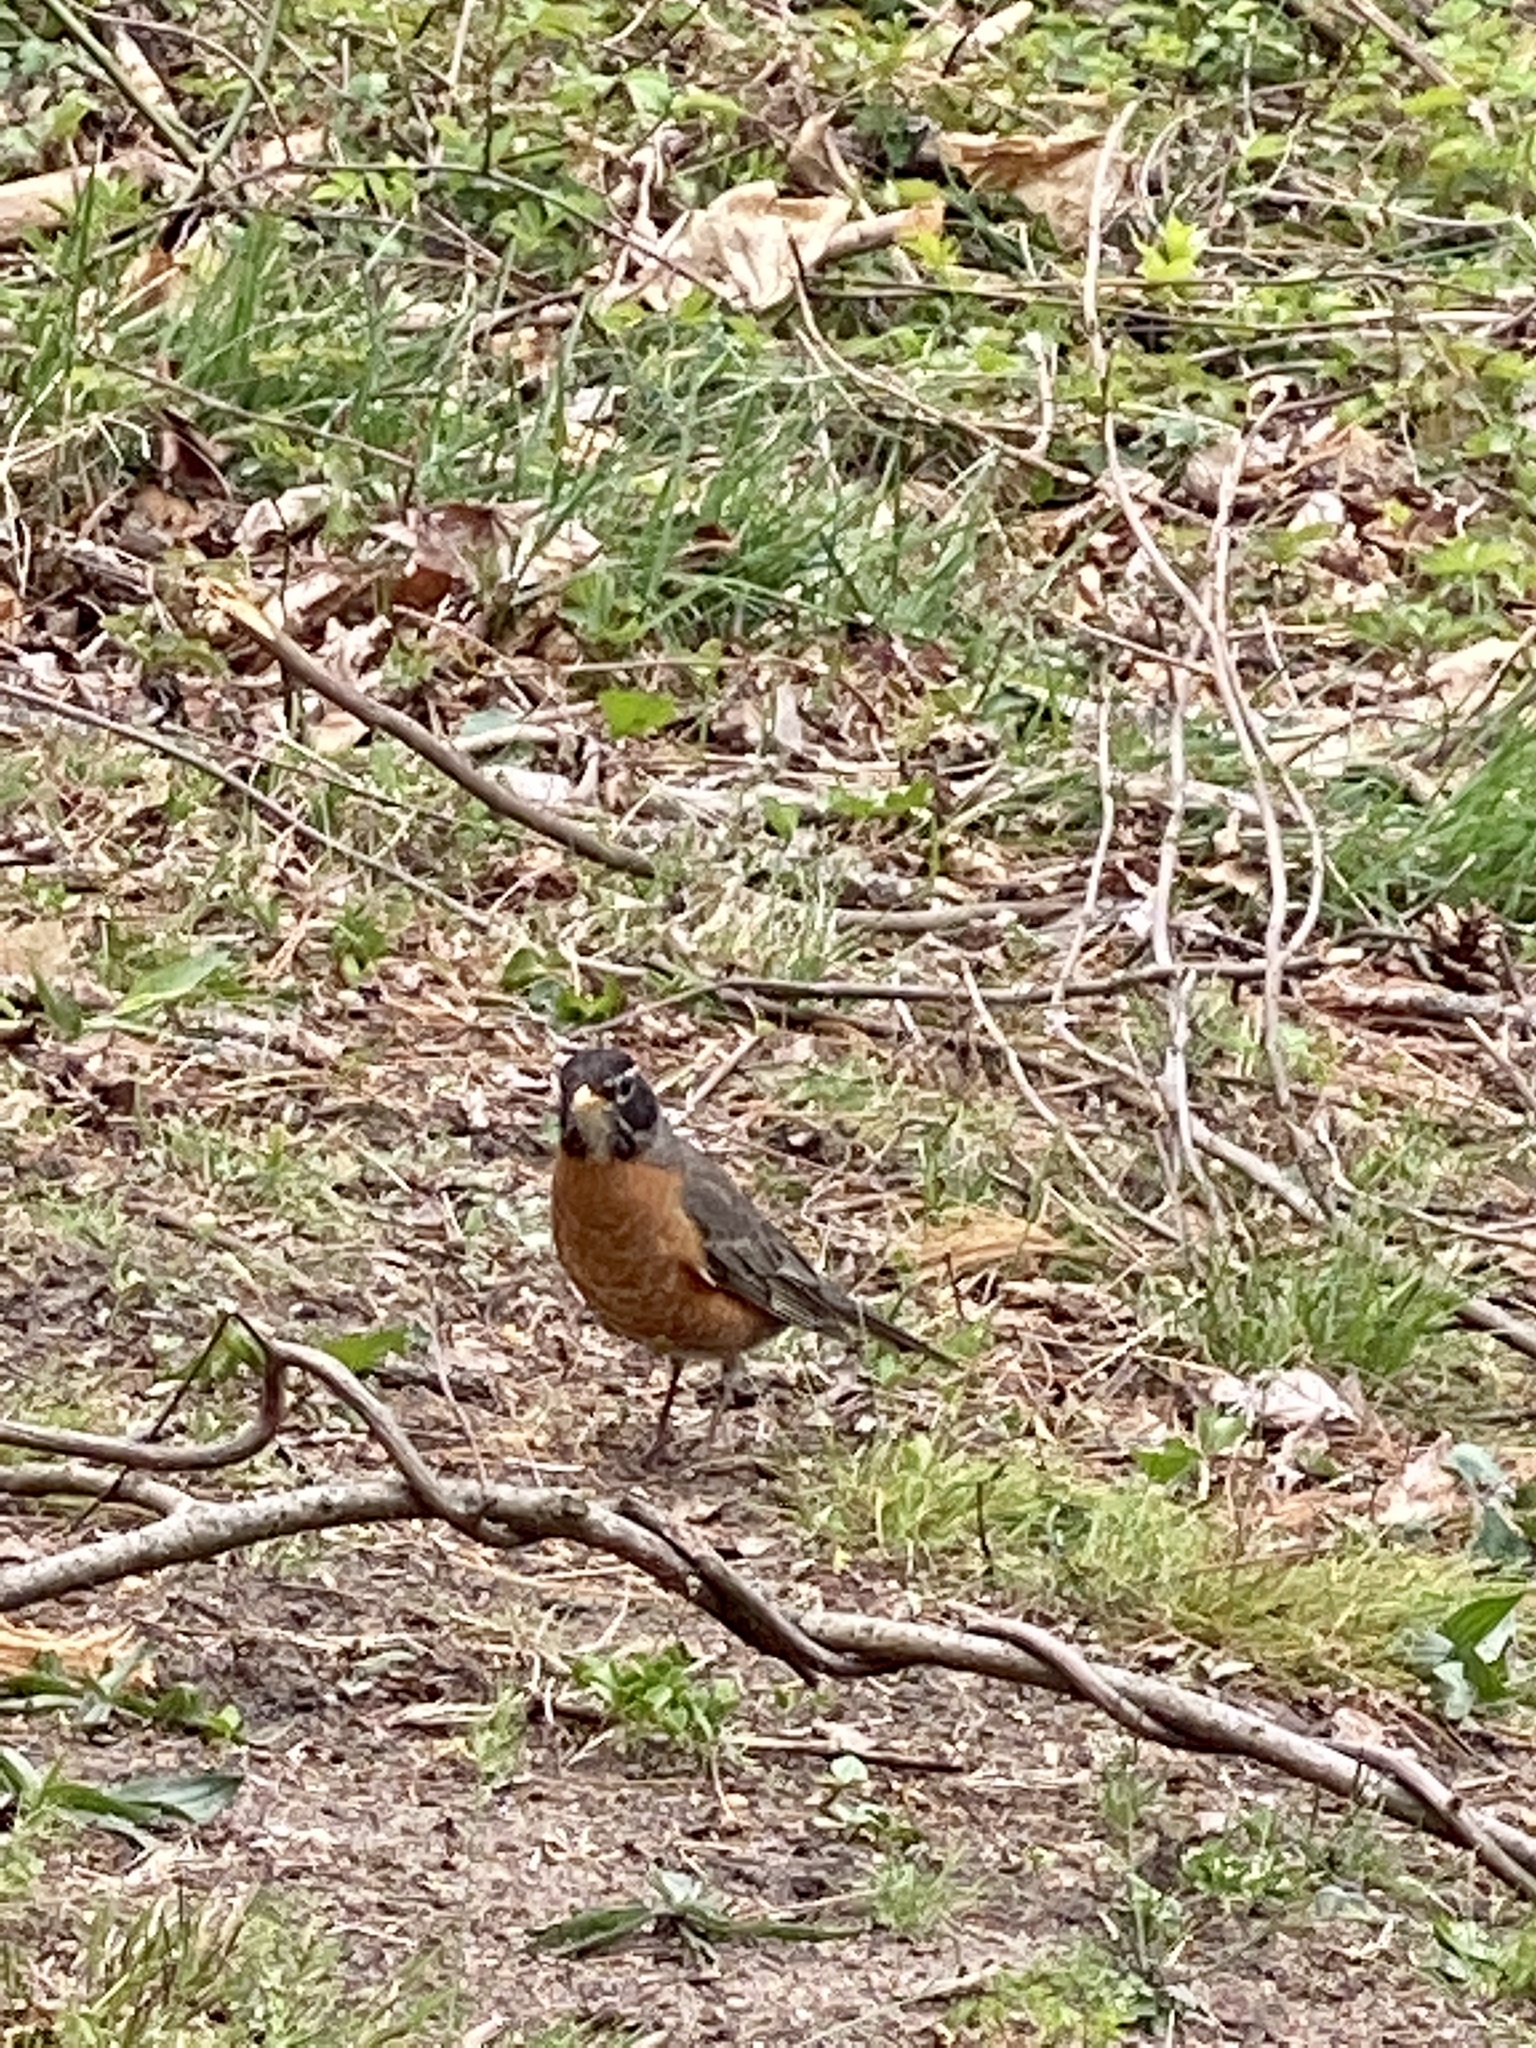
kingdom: Animalia
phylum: Chordata
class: Aves
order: Passeriformes
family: Turdidae
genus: Turdus
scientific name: Turdus migratorius
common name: American robin
